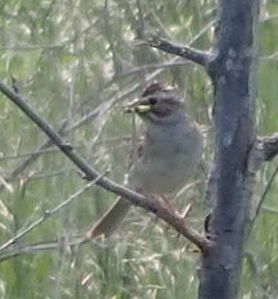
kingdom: Animalia
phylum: Chordata
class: Aves
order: Passeriformes
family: Passerellidae
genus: Spizella
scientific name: Spizella pallida
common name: Clay-colored sparrow
